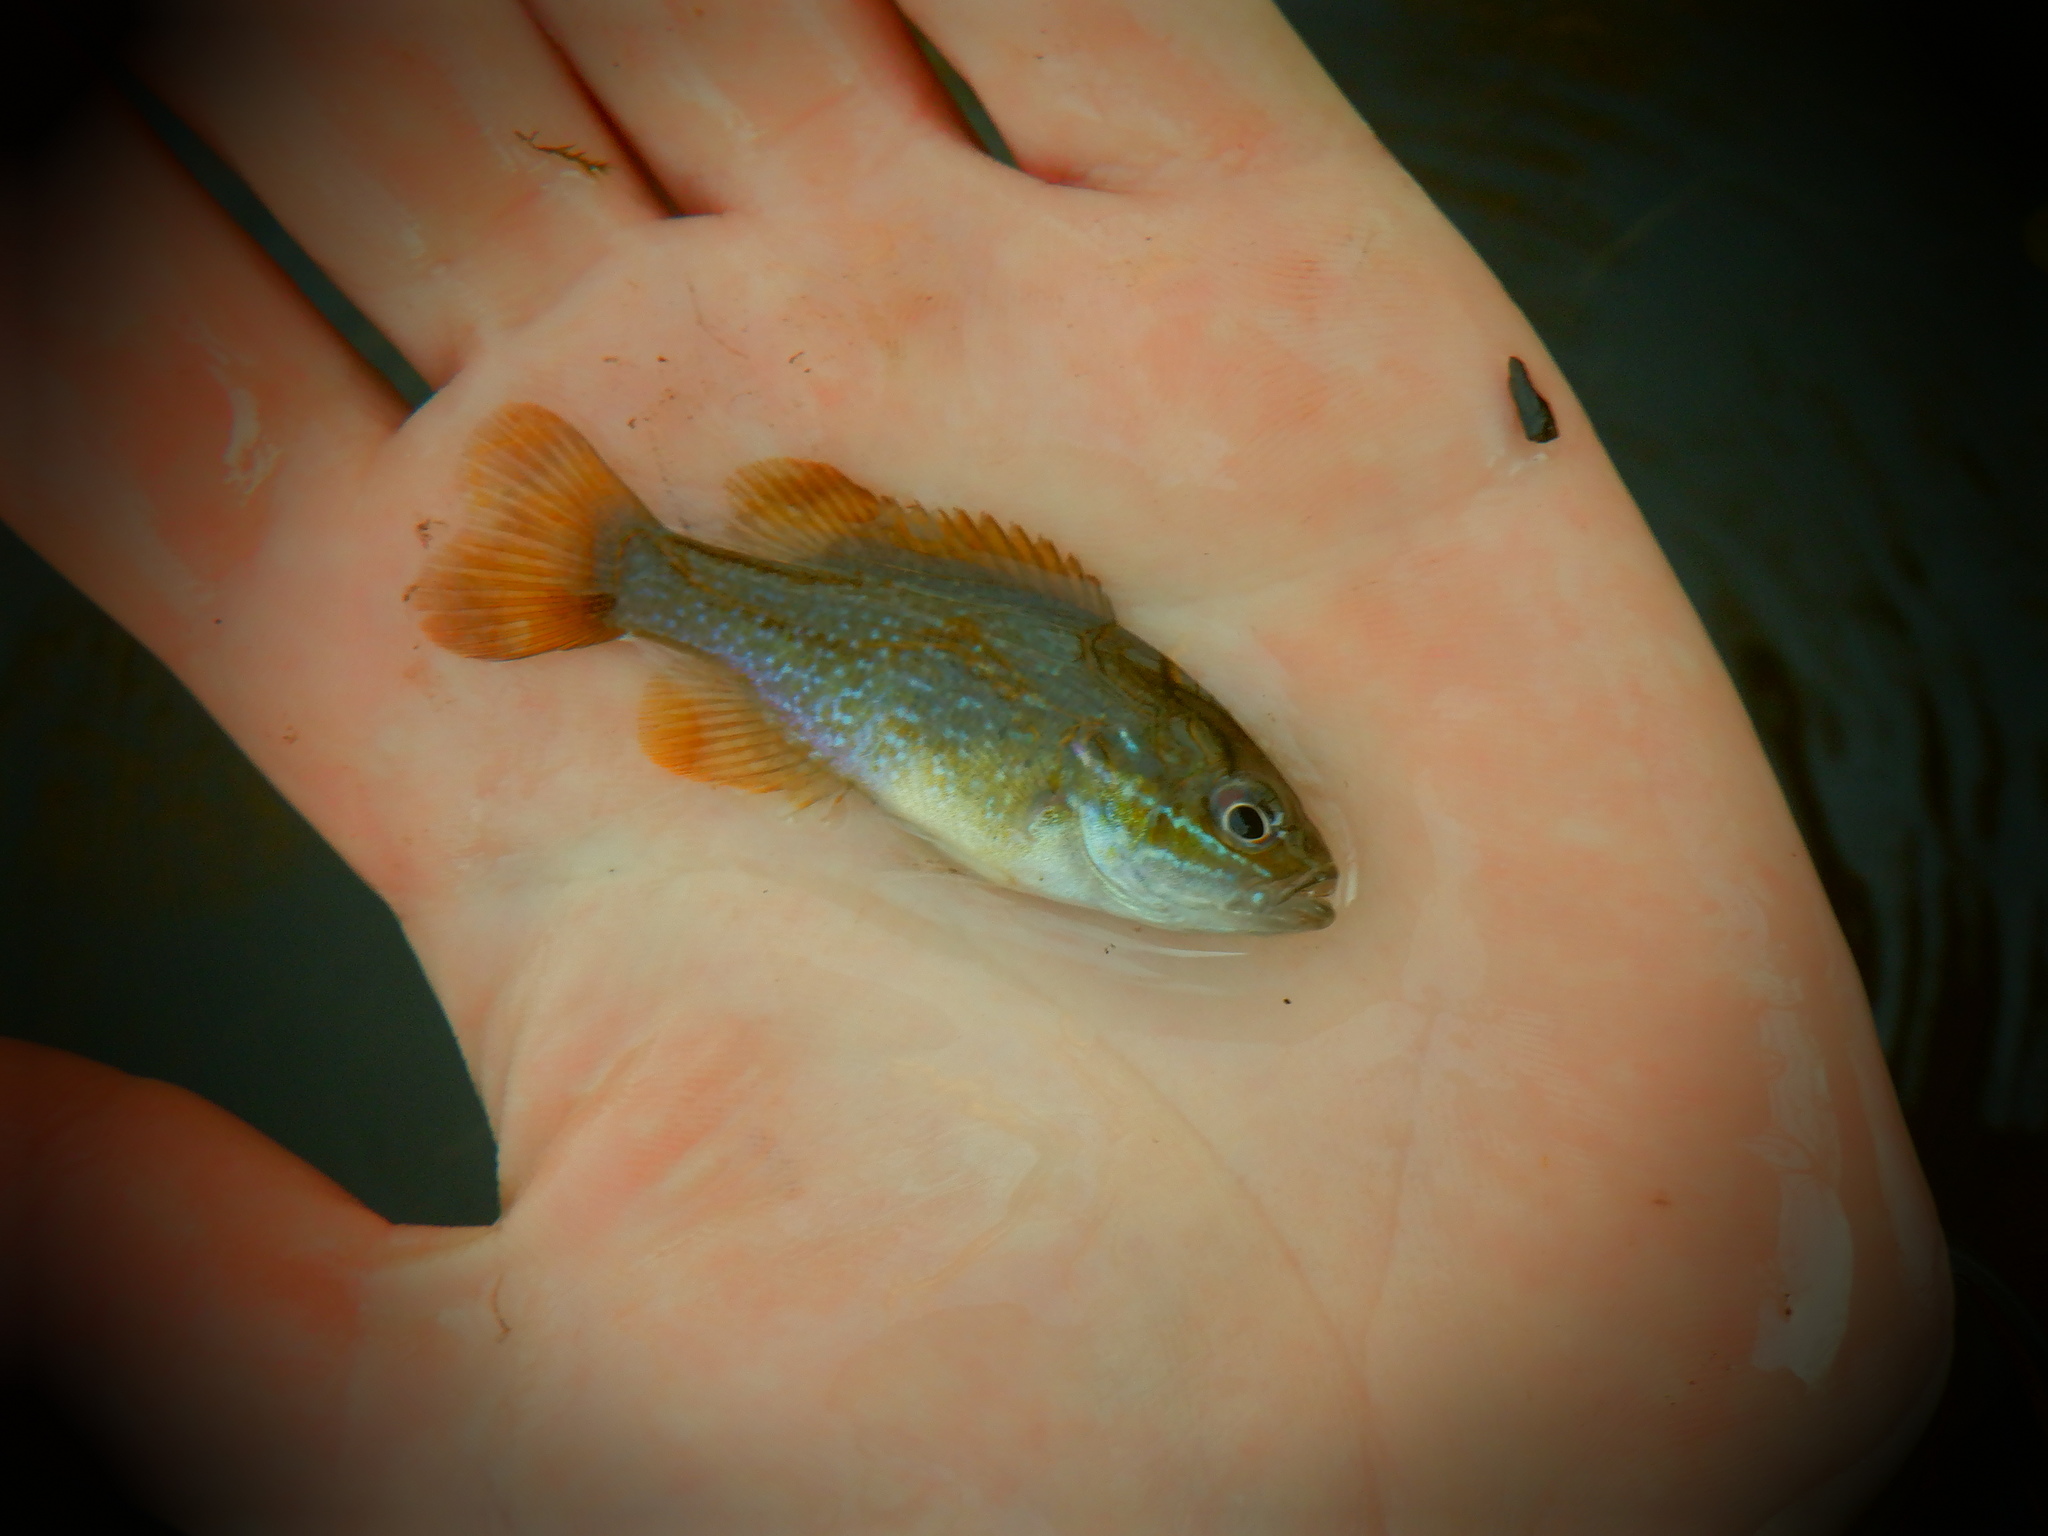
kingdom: Animalia
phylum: Chordata
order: Perciformes
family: Centrarchidae
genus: Lepomis
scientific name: Lepomis cyanellus
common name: Green sunfish
